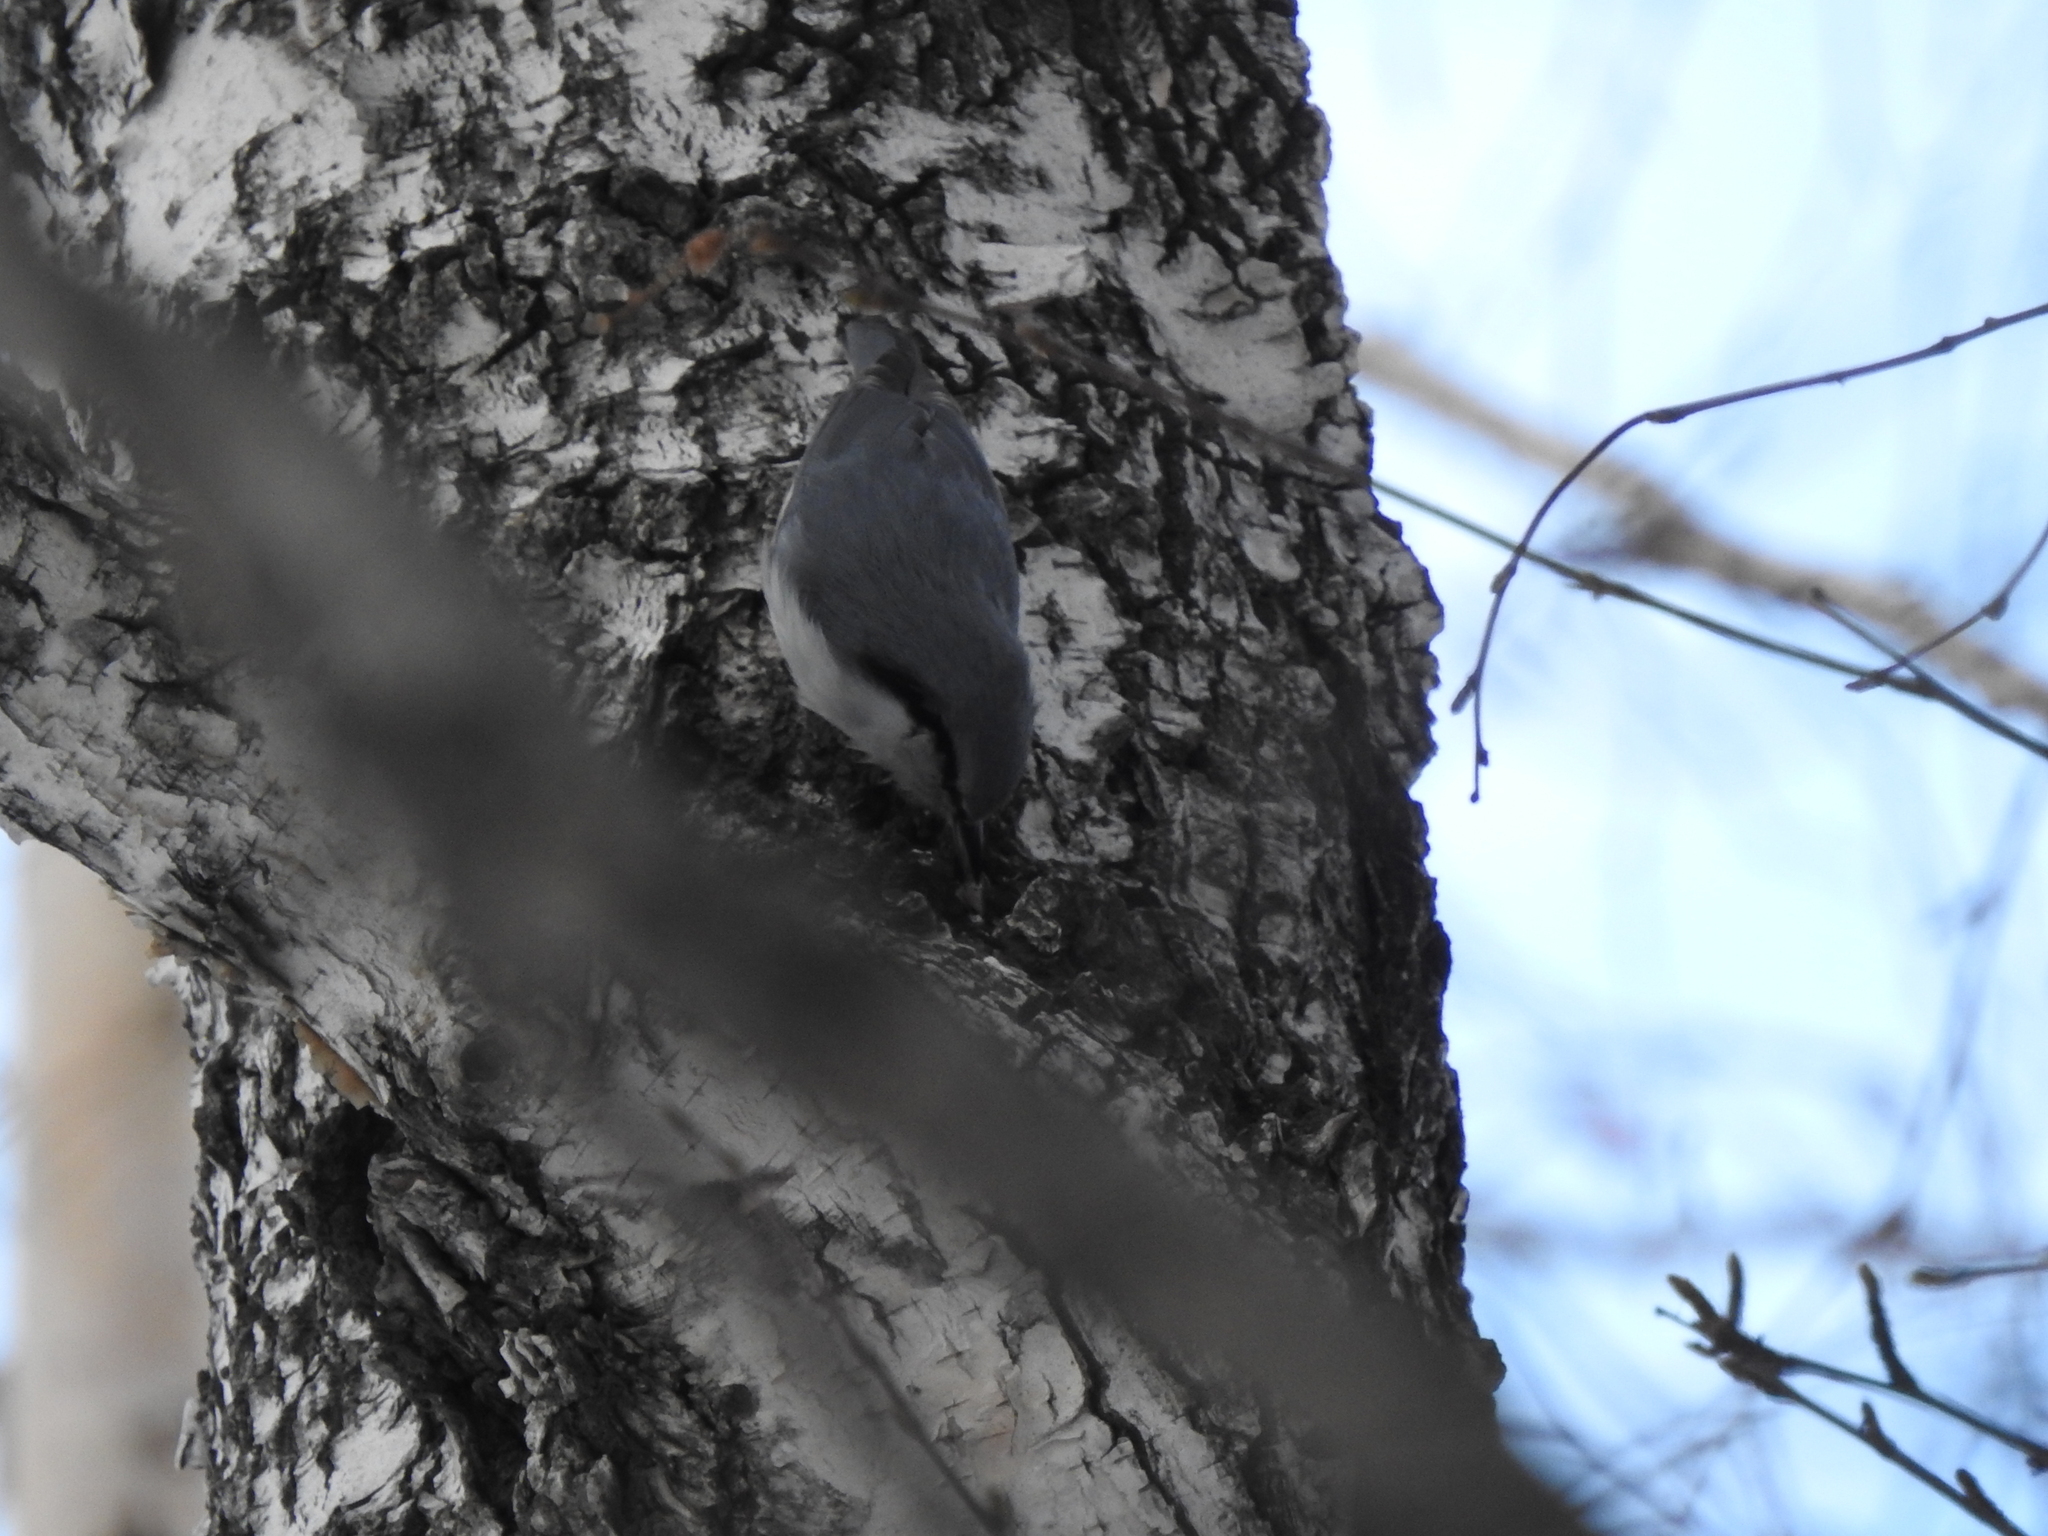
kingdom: Animalia
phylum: Chordata
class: Aves
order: Passeriformes
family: Sittidae
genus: Sitta
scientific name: Sitta europaea
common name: Eurasian nuthatch
